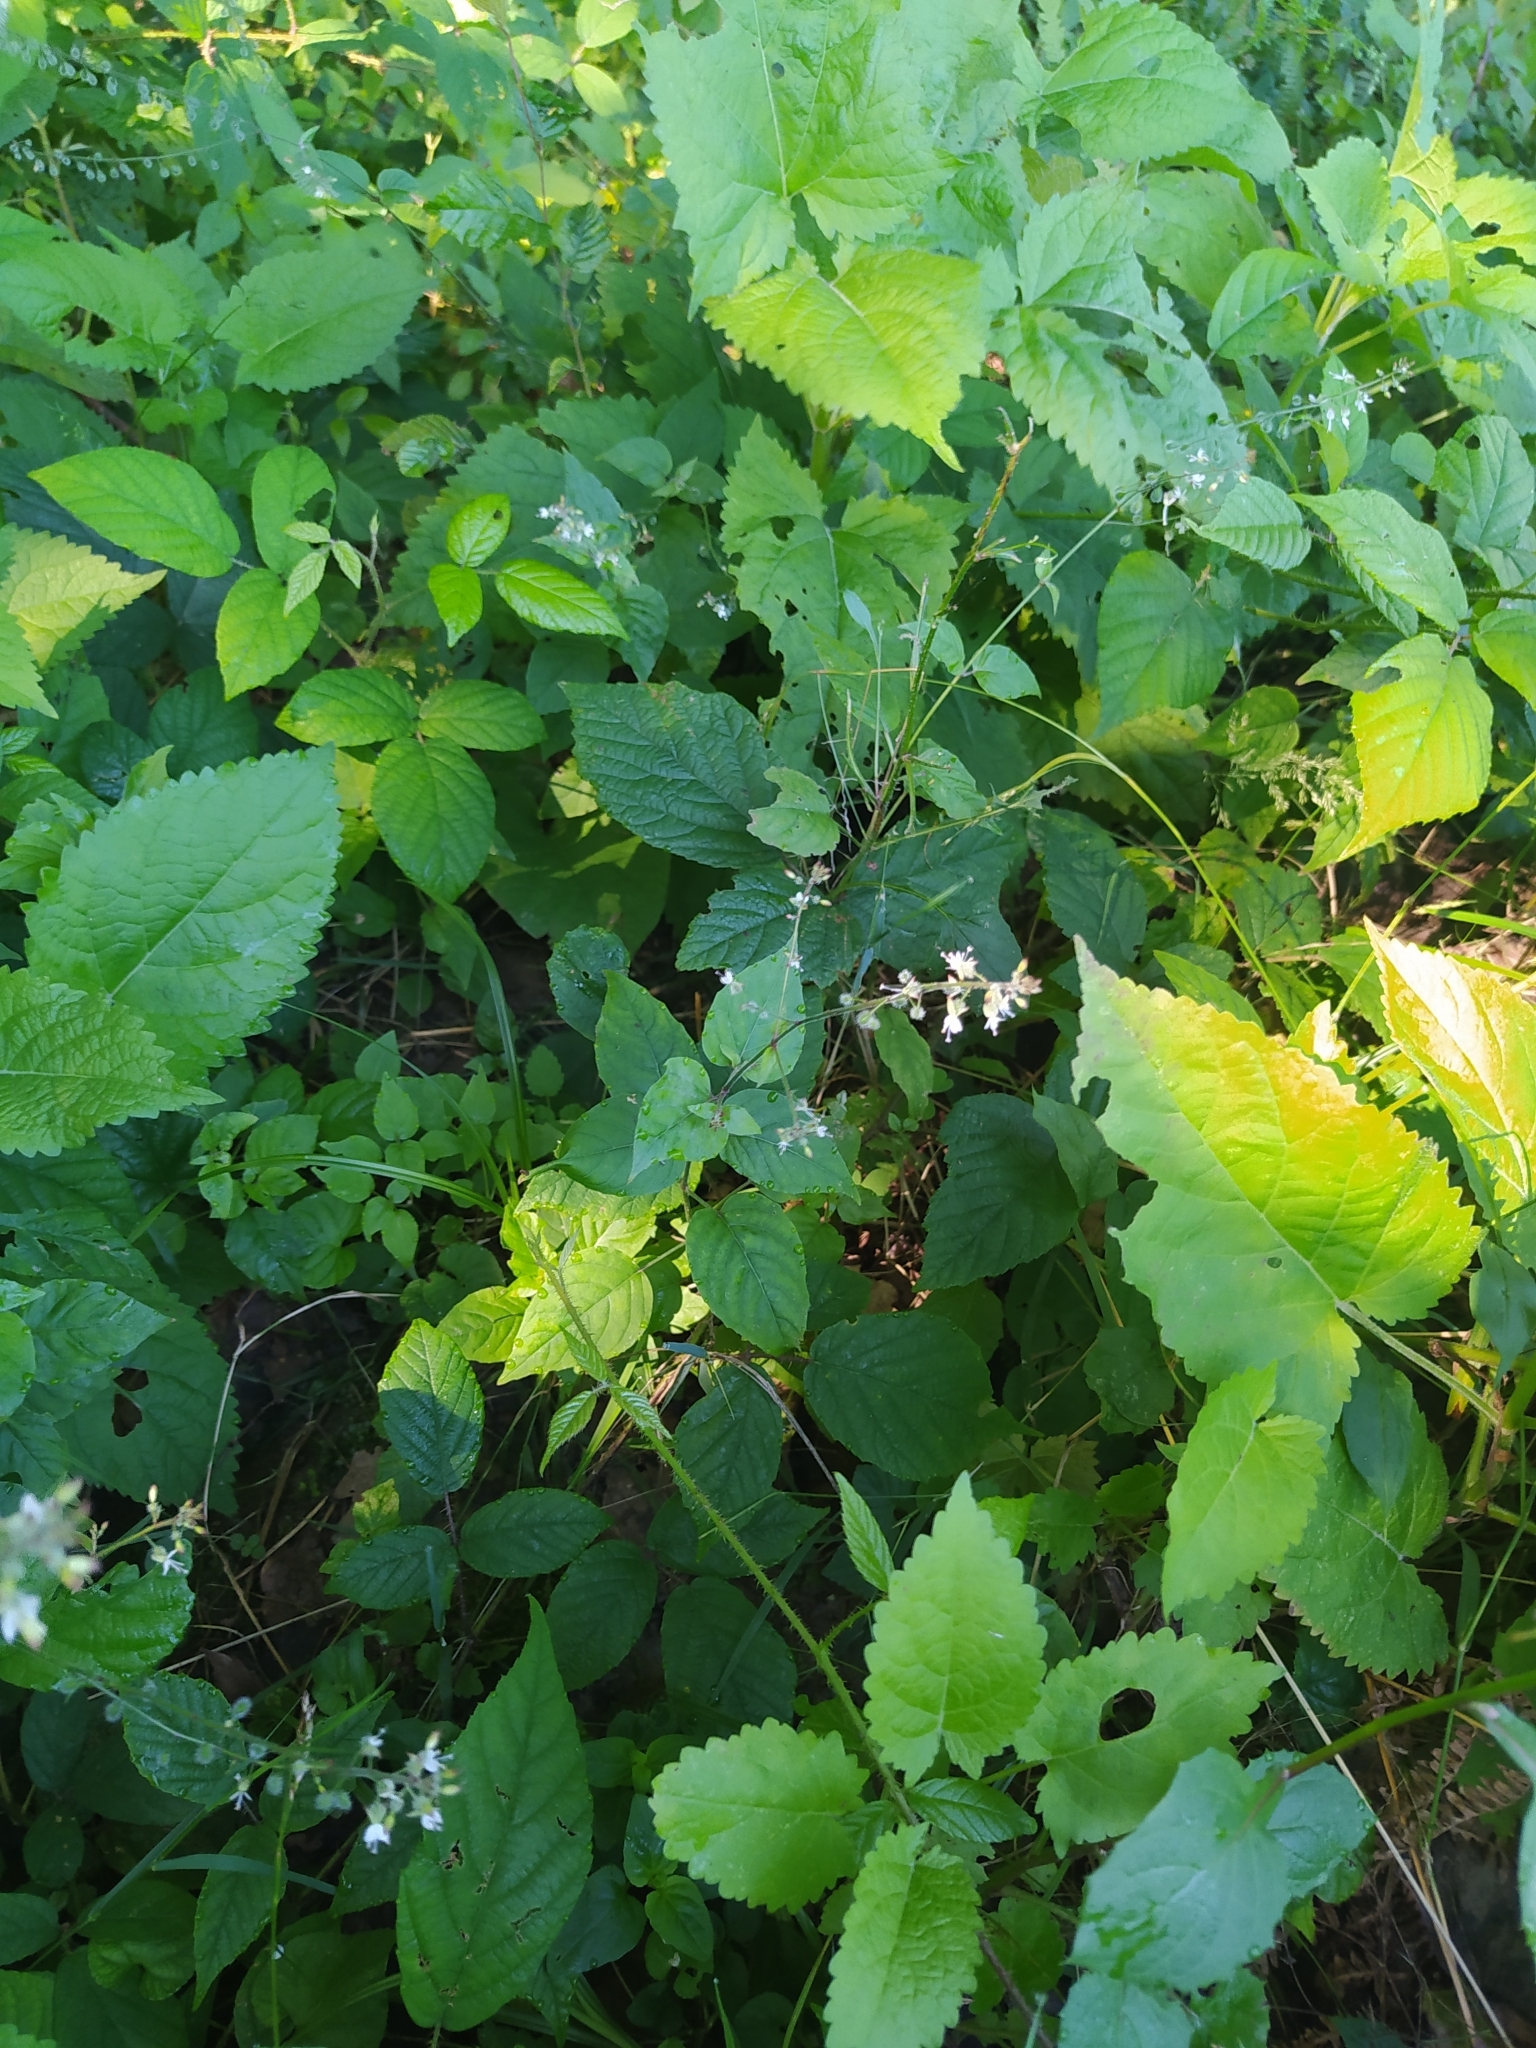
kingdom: Plantae
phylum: Tracheophyta
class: Magnoliopsida
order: Myrtales
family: Onagraceae
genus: Circaea
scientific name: Circaea lutetiana
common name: Enchanter's-nightshade
